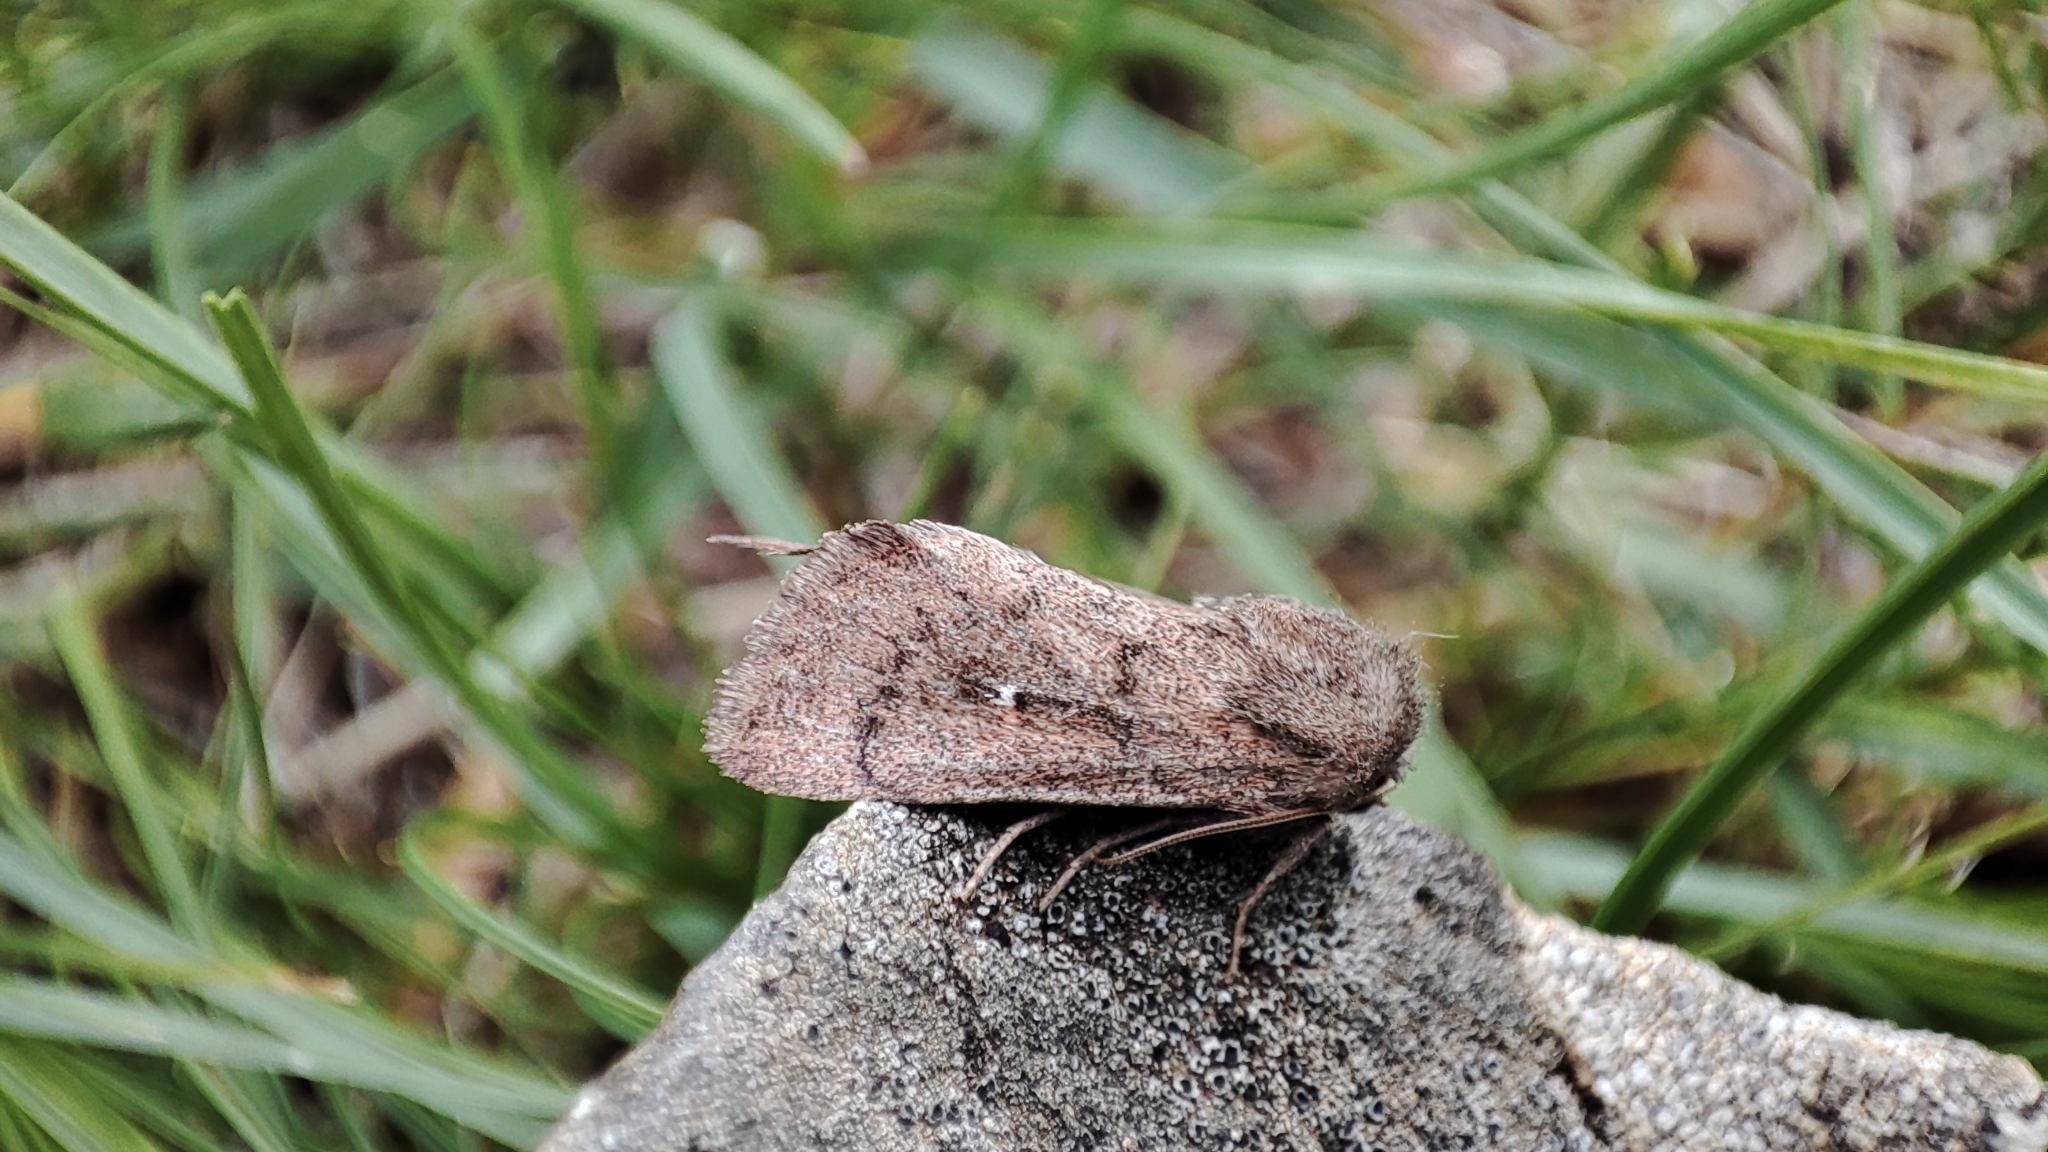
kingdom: Animalia
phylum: Arthropoda
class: Insecta
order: Lepidoptera
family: Noctuidae
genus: Mythimna
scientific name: Mythimna opaca
